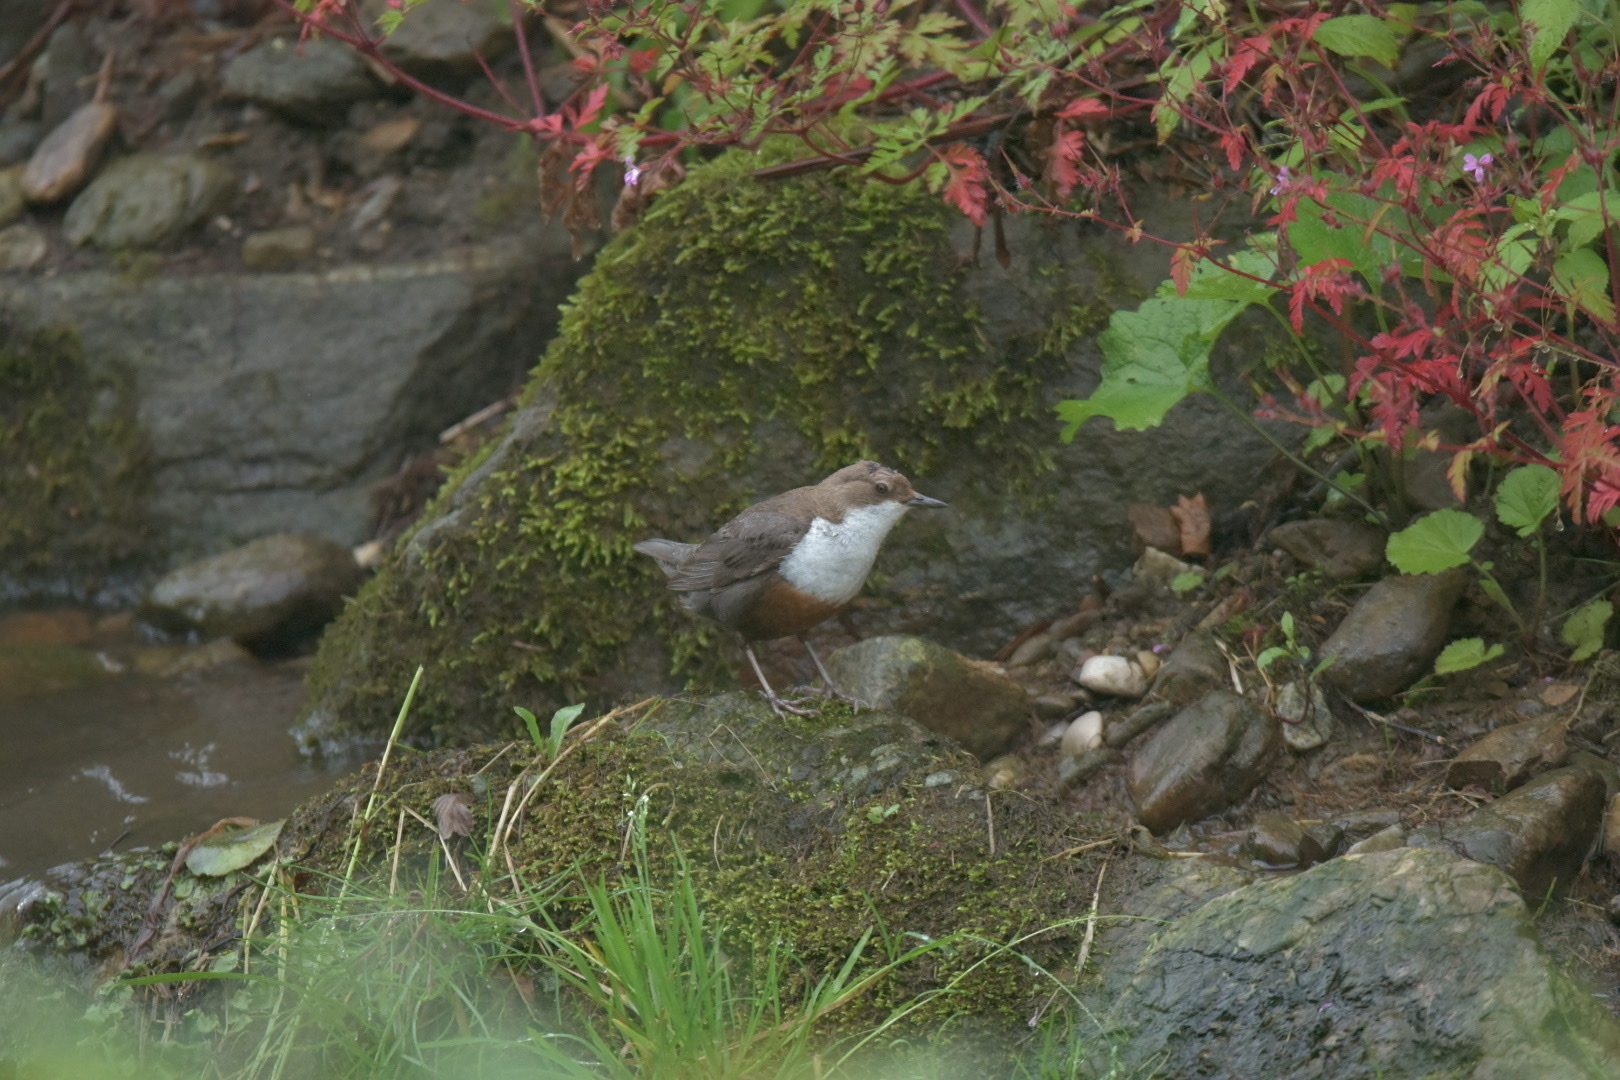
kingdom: Animalia
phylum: Chordata
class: Aves
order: Passeriformes
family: Cinclidae
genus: Cinclus
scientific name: Cinclus cinclus
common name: White-throated dipper
